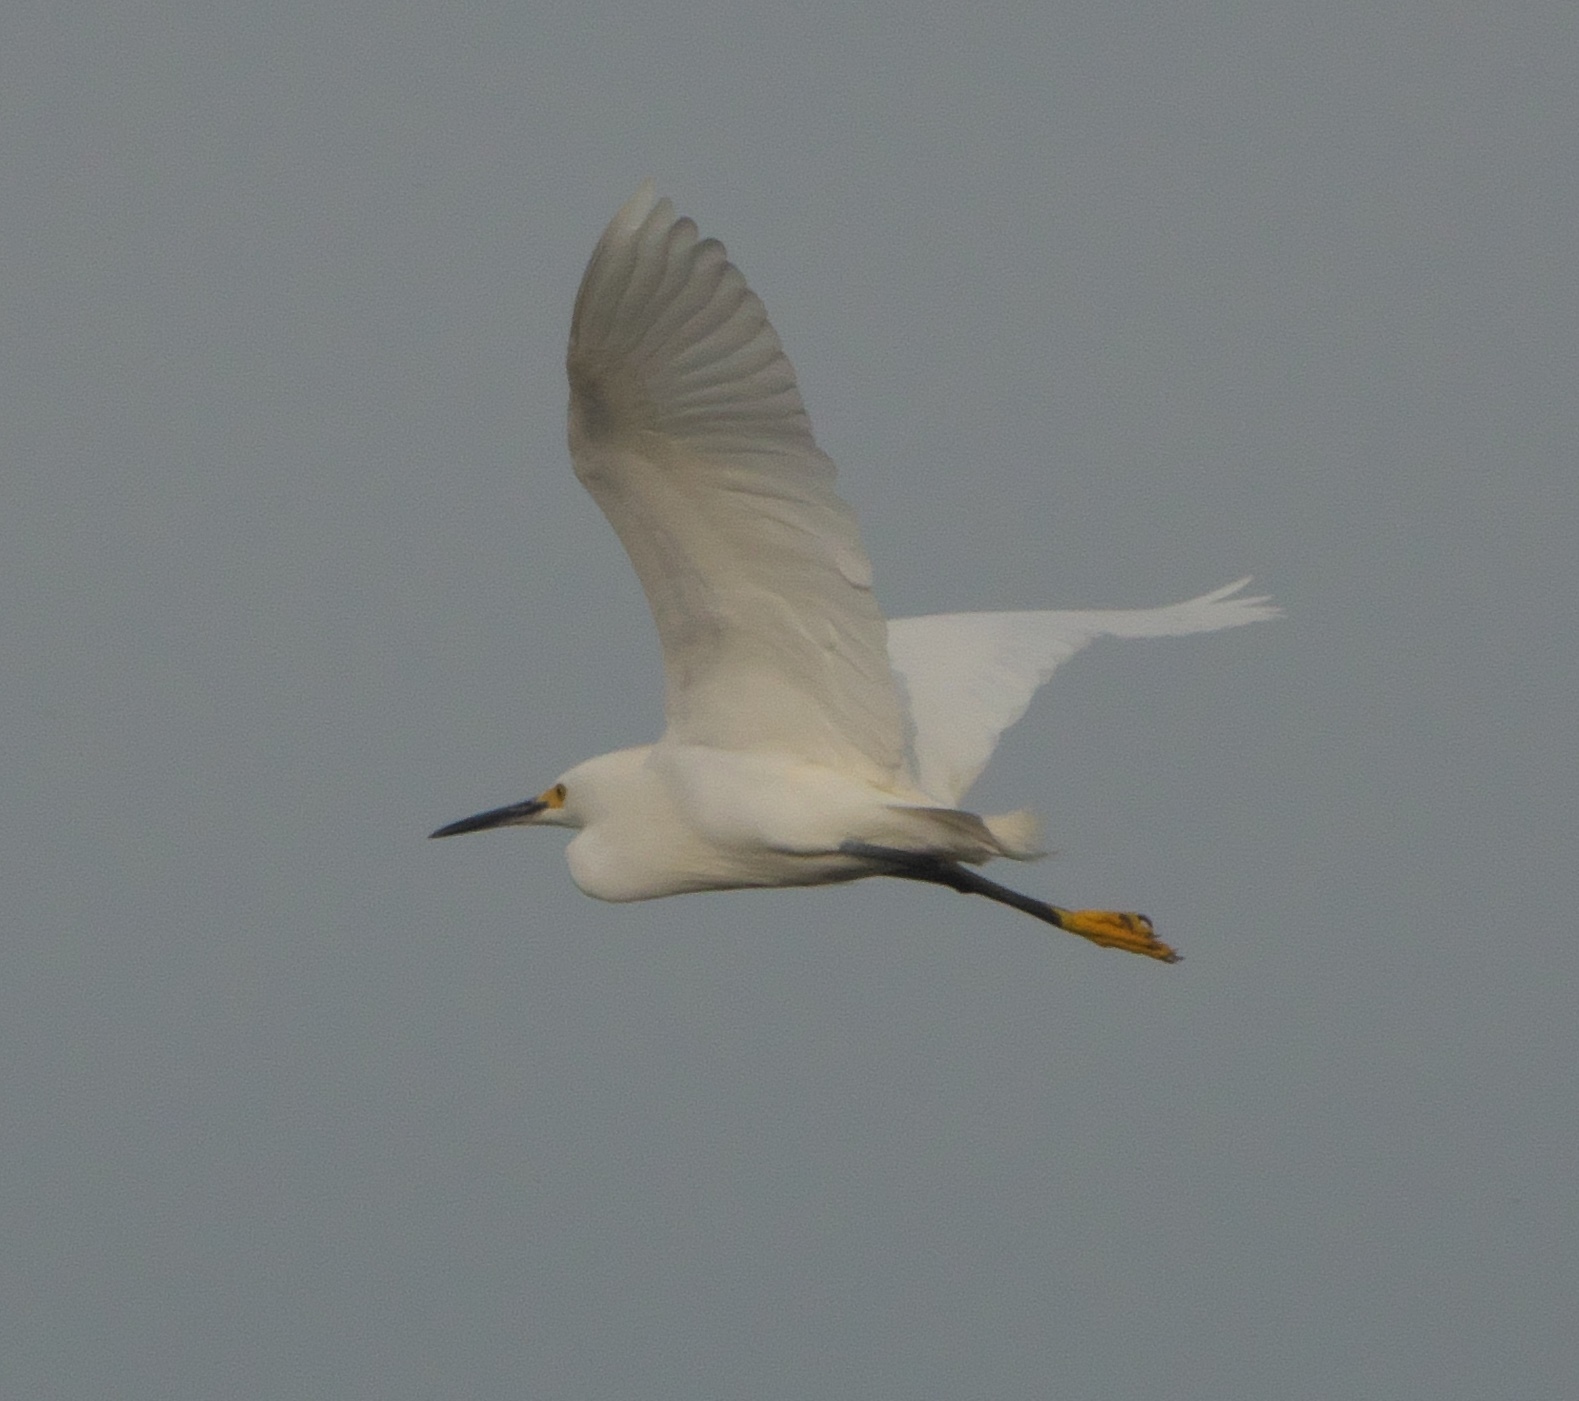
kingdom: Animalia
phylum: Chordata
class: Aves
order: Pelecaniformes
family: Ardeidae
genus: Egretta
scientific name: Egretta thula
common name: Snowy egret
